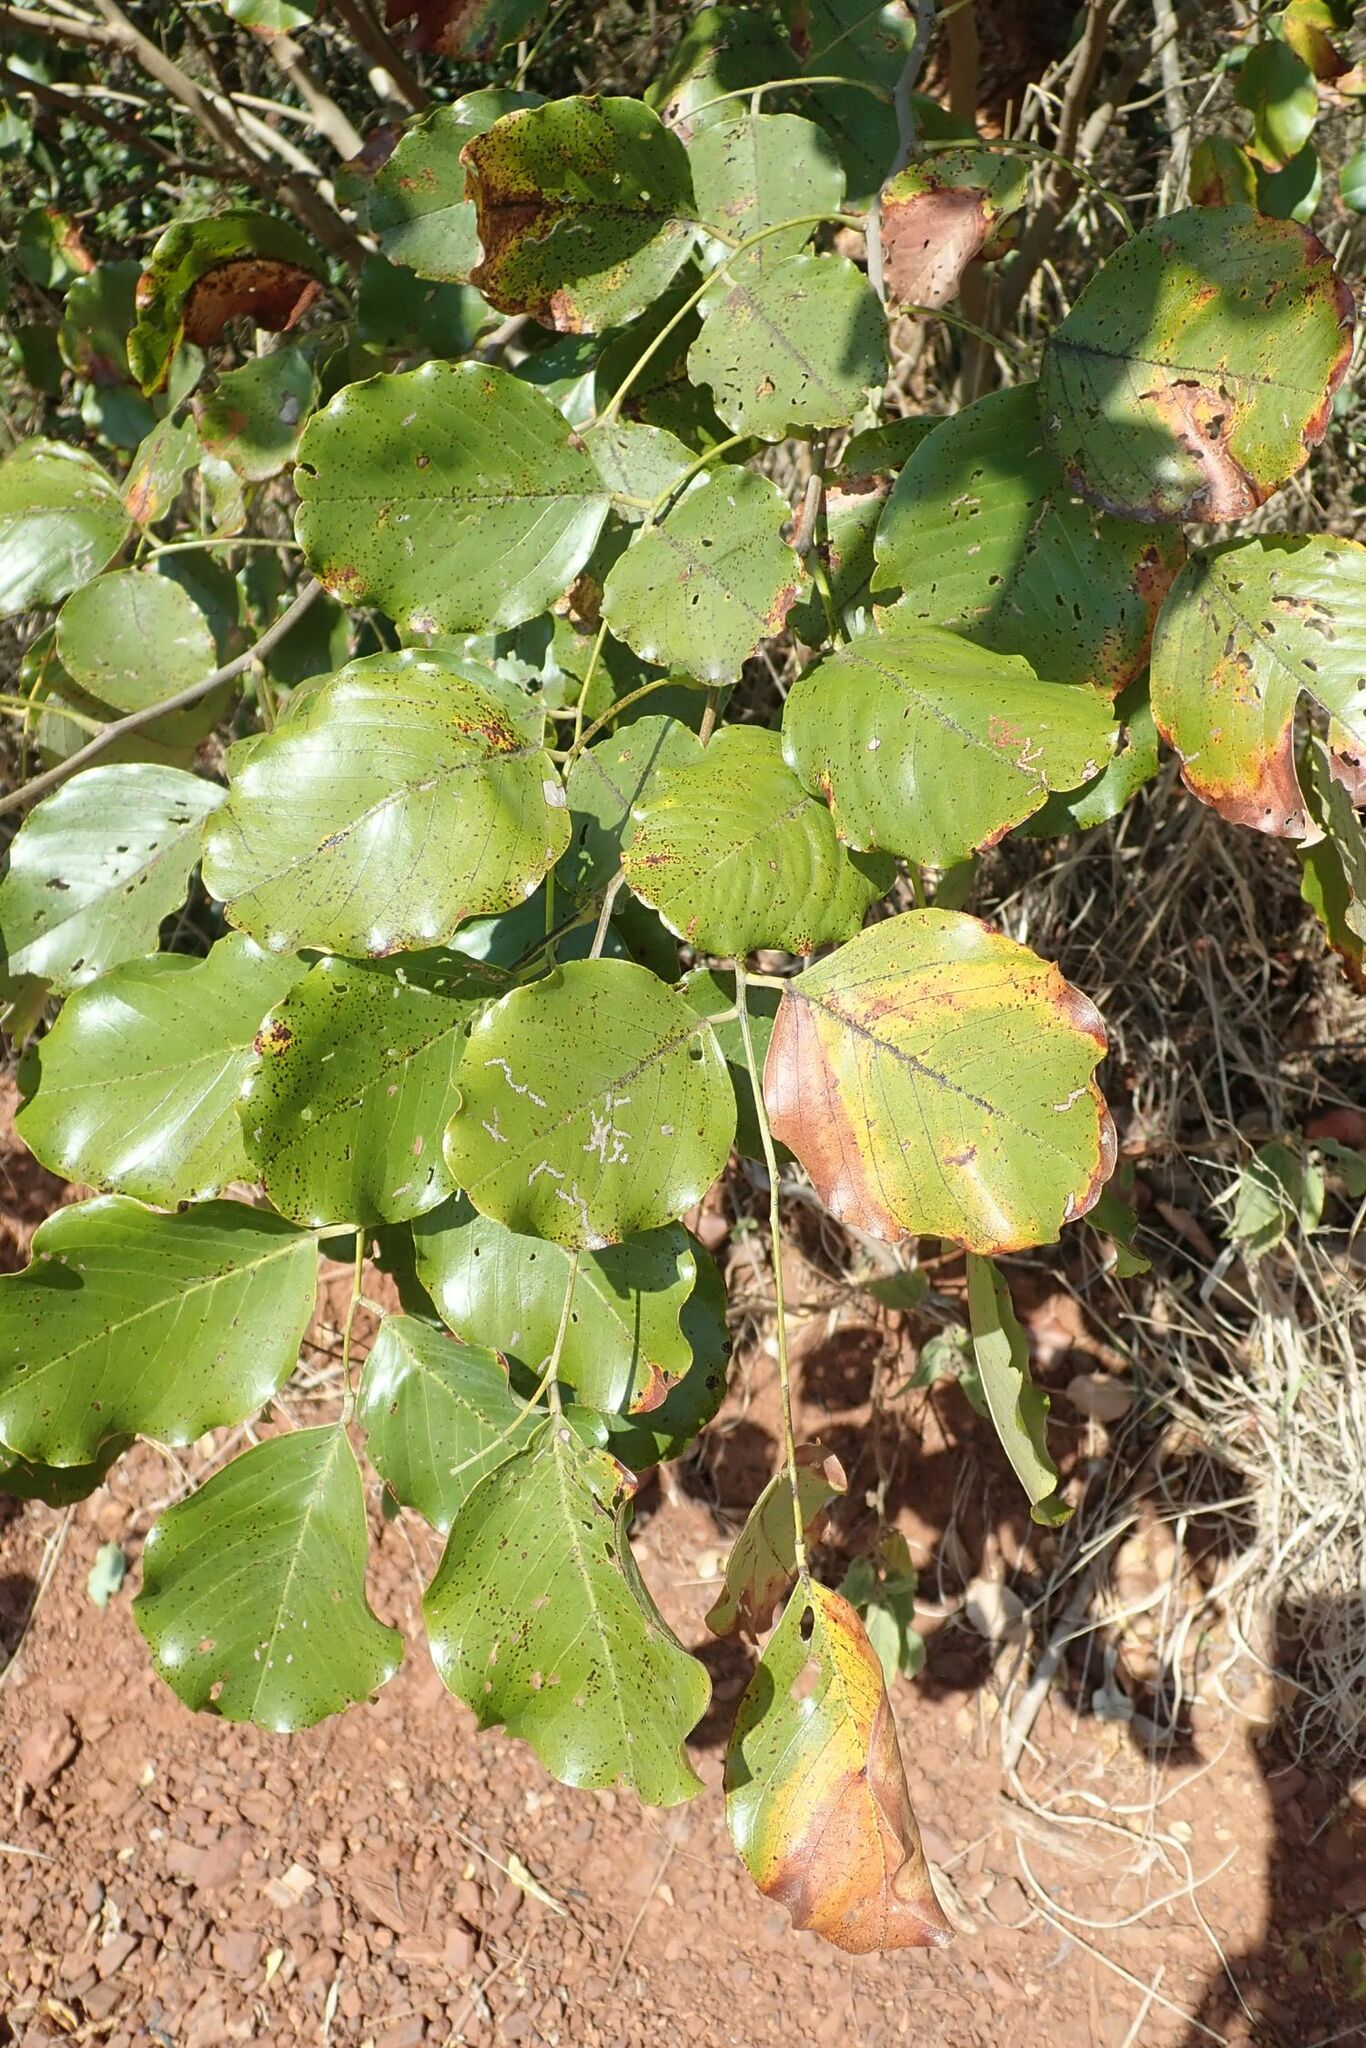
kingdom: Plantae
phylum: Tracheophyta
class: Magnoliopsida
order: Fabales
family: Fabaceae
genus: Pterocarpus
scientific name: Pterocarpus rotundifolius
